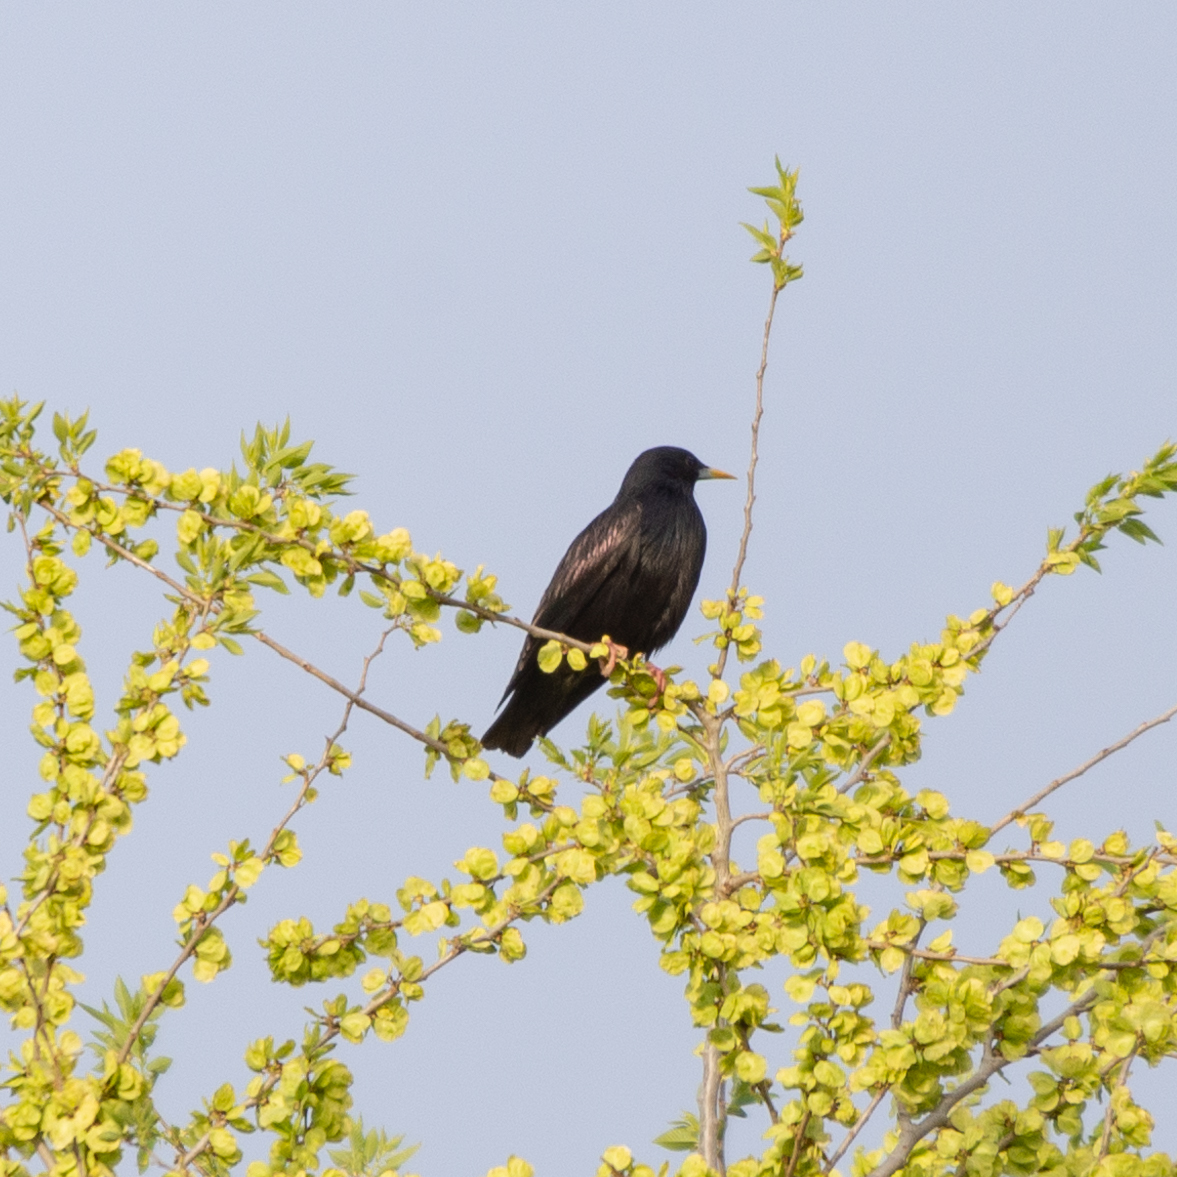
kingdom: Animalia
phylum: Chordata
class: Aves
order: Passeriformes
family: Sturnidae
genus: Sturnus
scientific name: Sturnus unicolor
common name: Spotless starling
